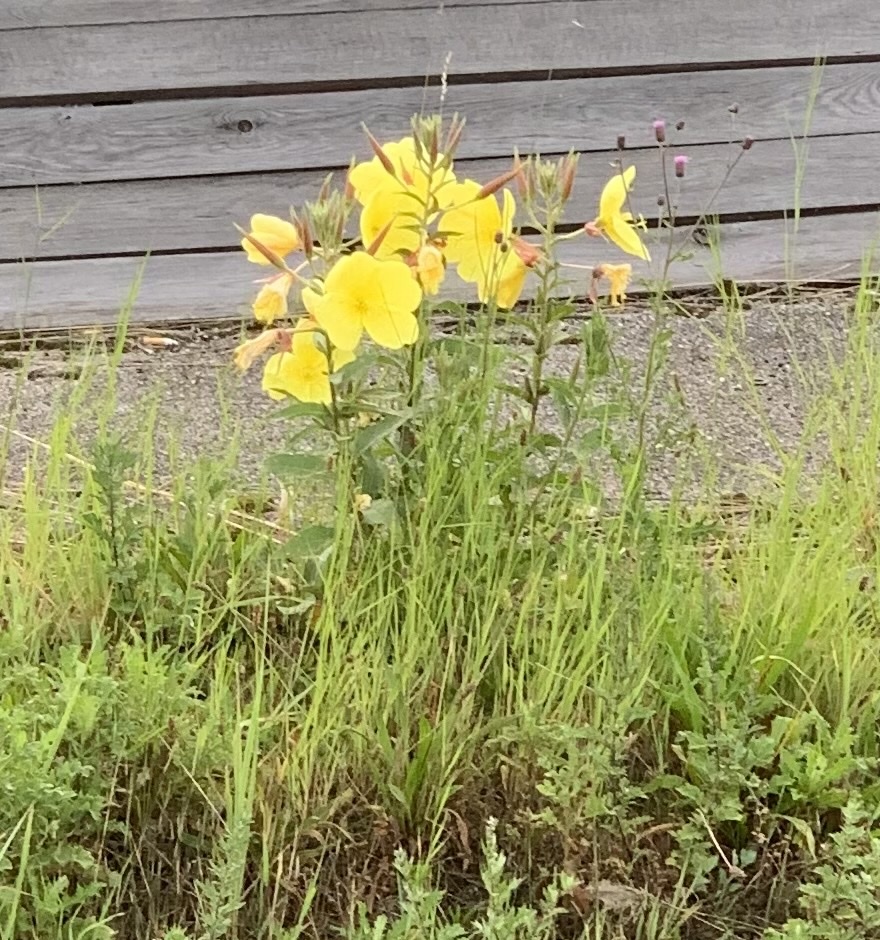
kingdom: Plantae
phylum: Tracheophyta
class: Magnoliopsida
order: Myrtales
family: Onagraceae
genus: Oenothera
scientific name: Oenothera glazioviana
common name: Large-flowered evening-primrose
